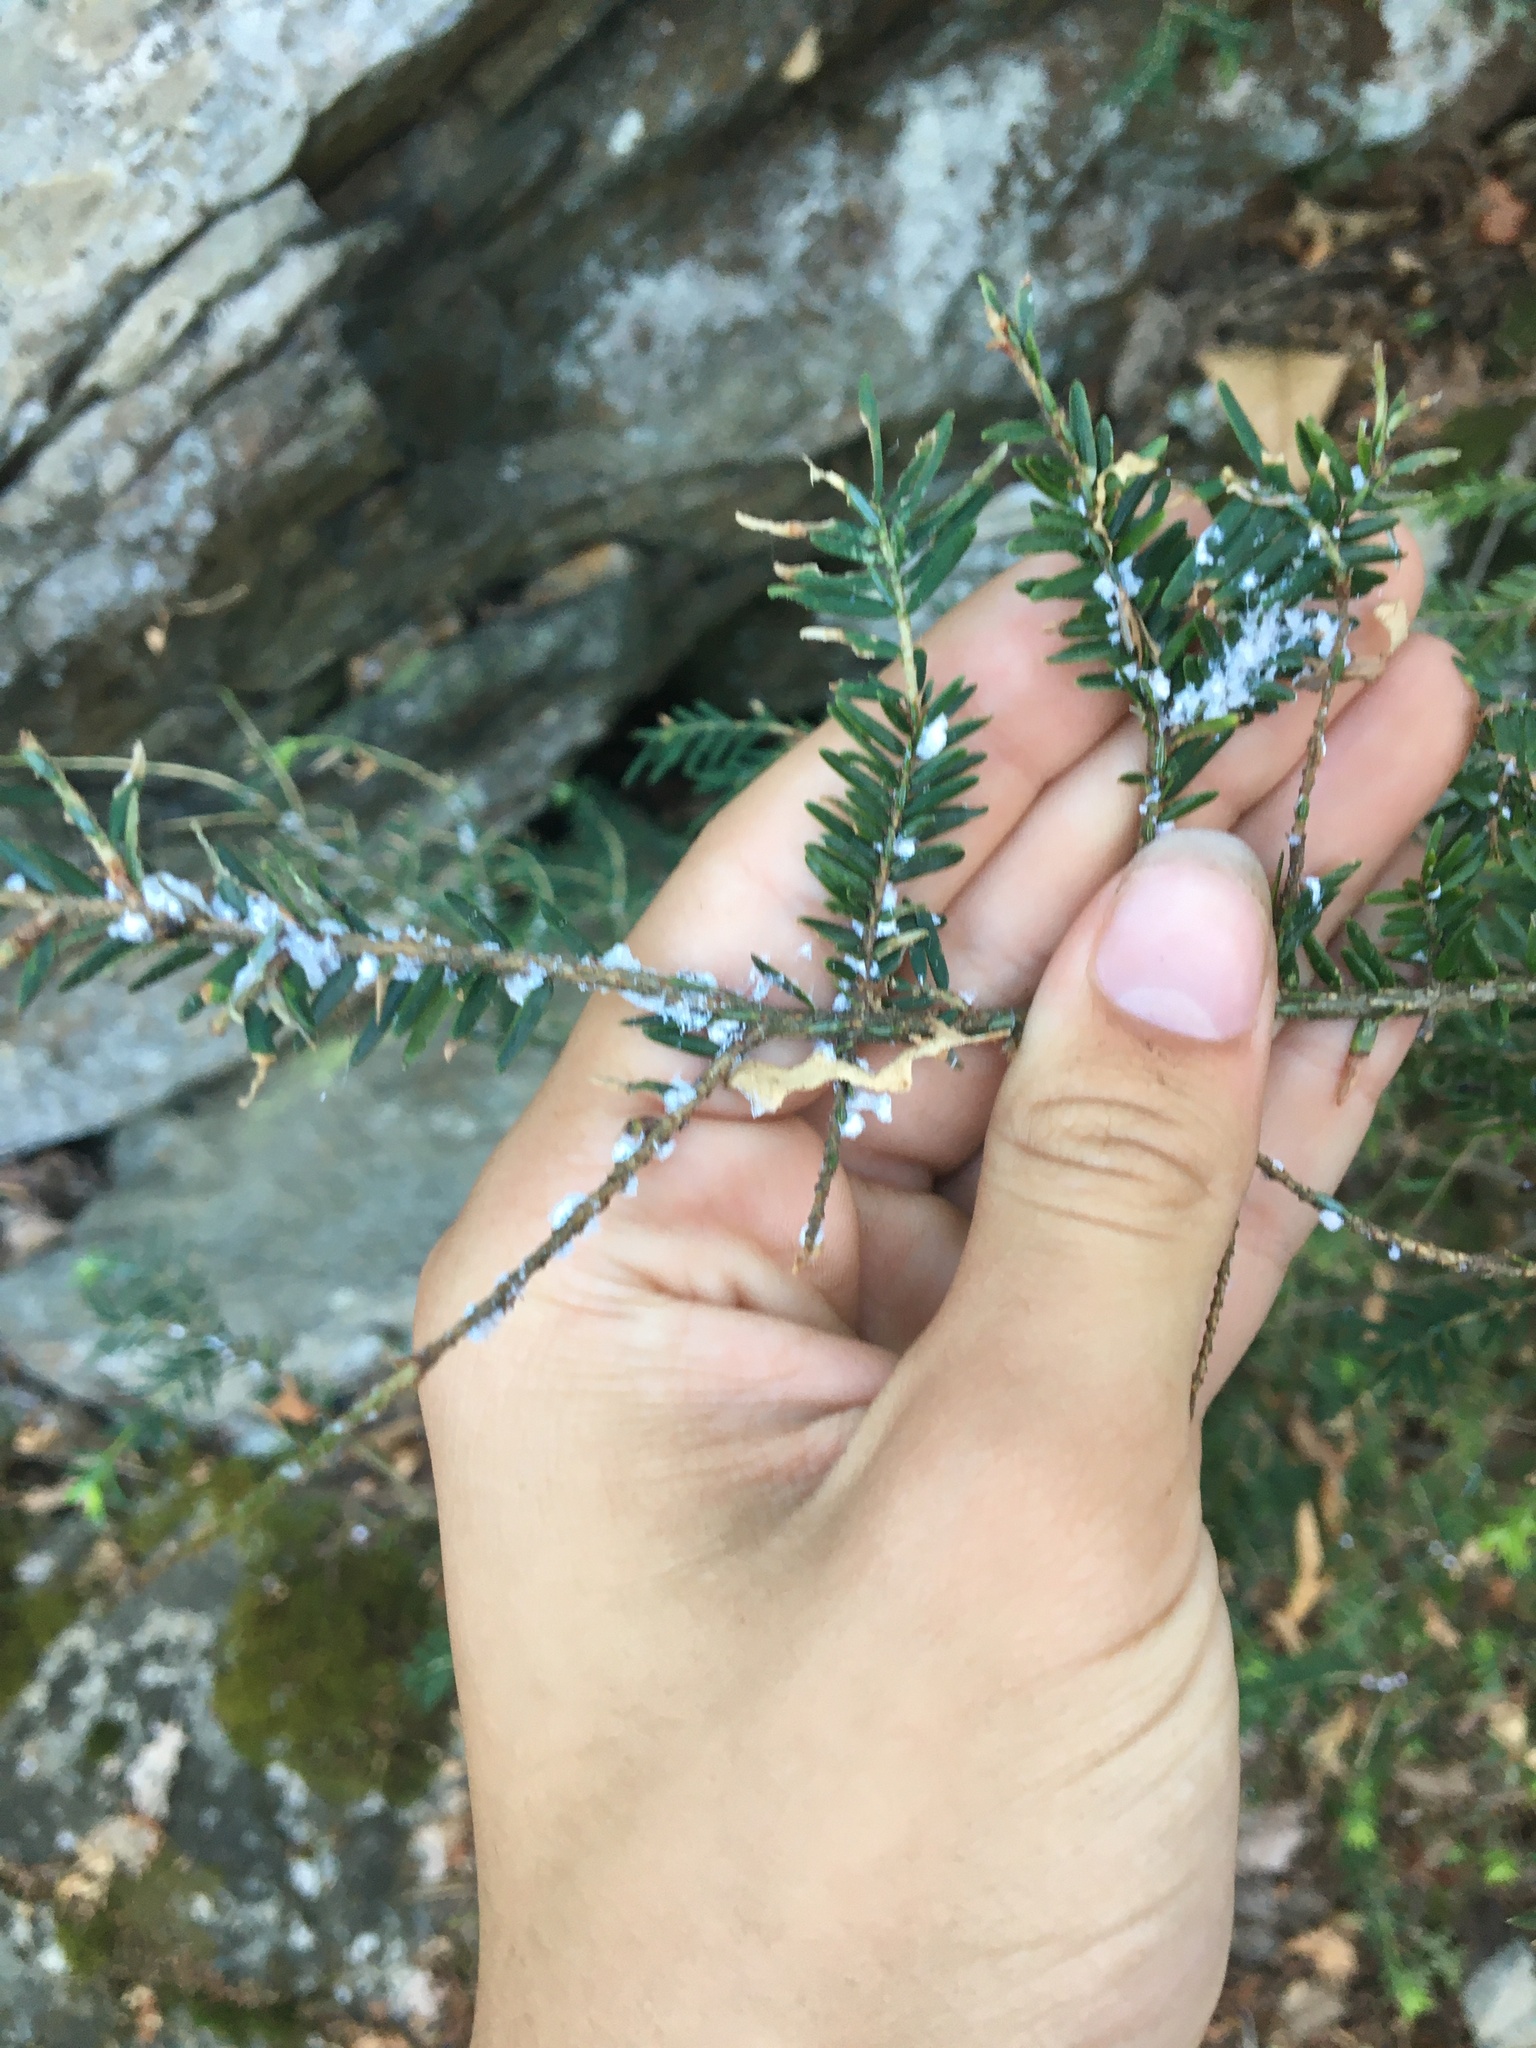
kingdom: Animalia
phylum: Arthropoda
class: Insecta
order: Hemiptera
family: Adelgidae
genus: Adelges
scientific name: Adelges tsugae
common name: Hemlock woolly adelgid
